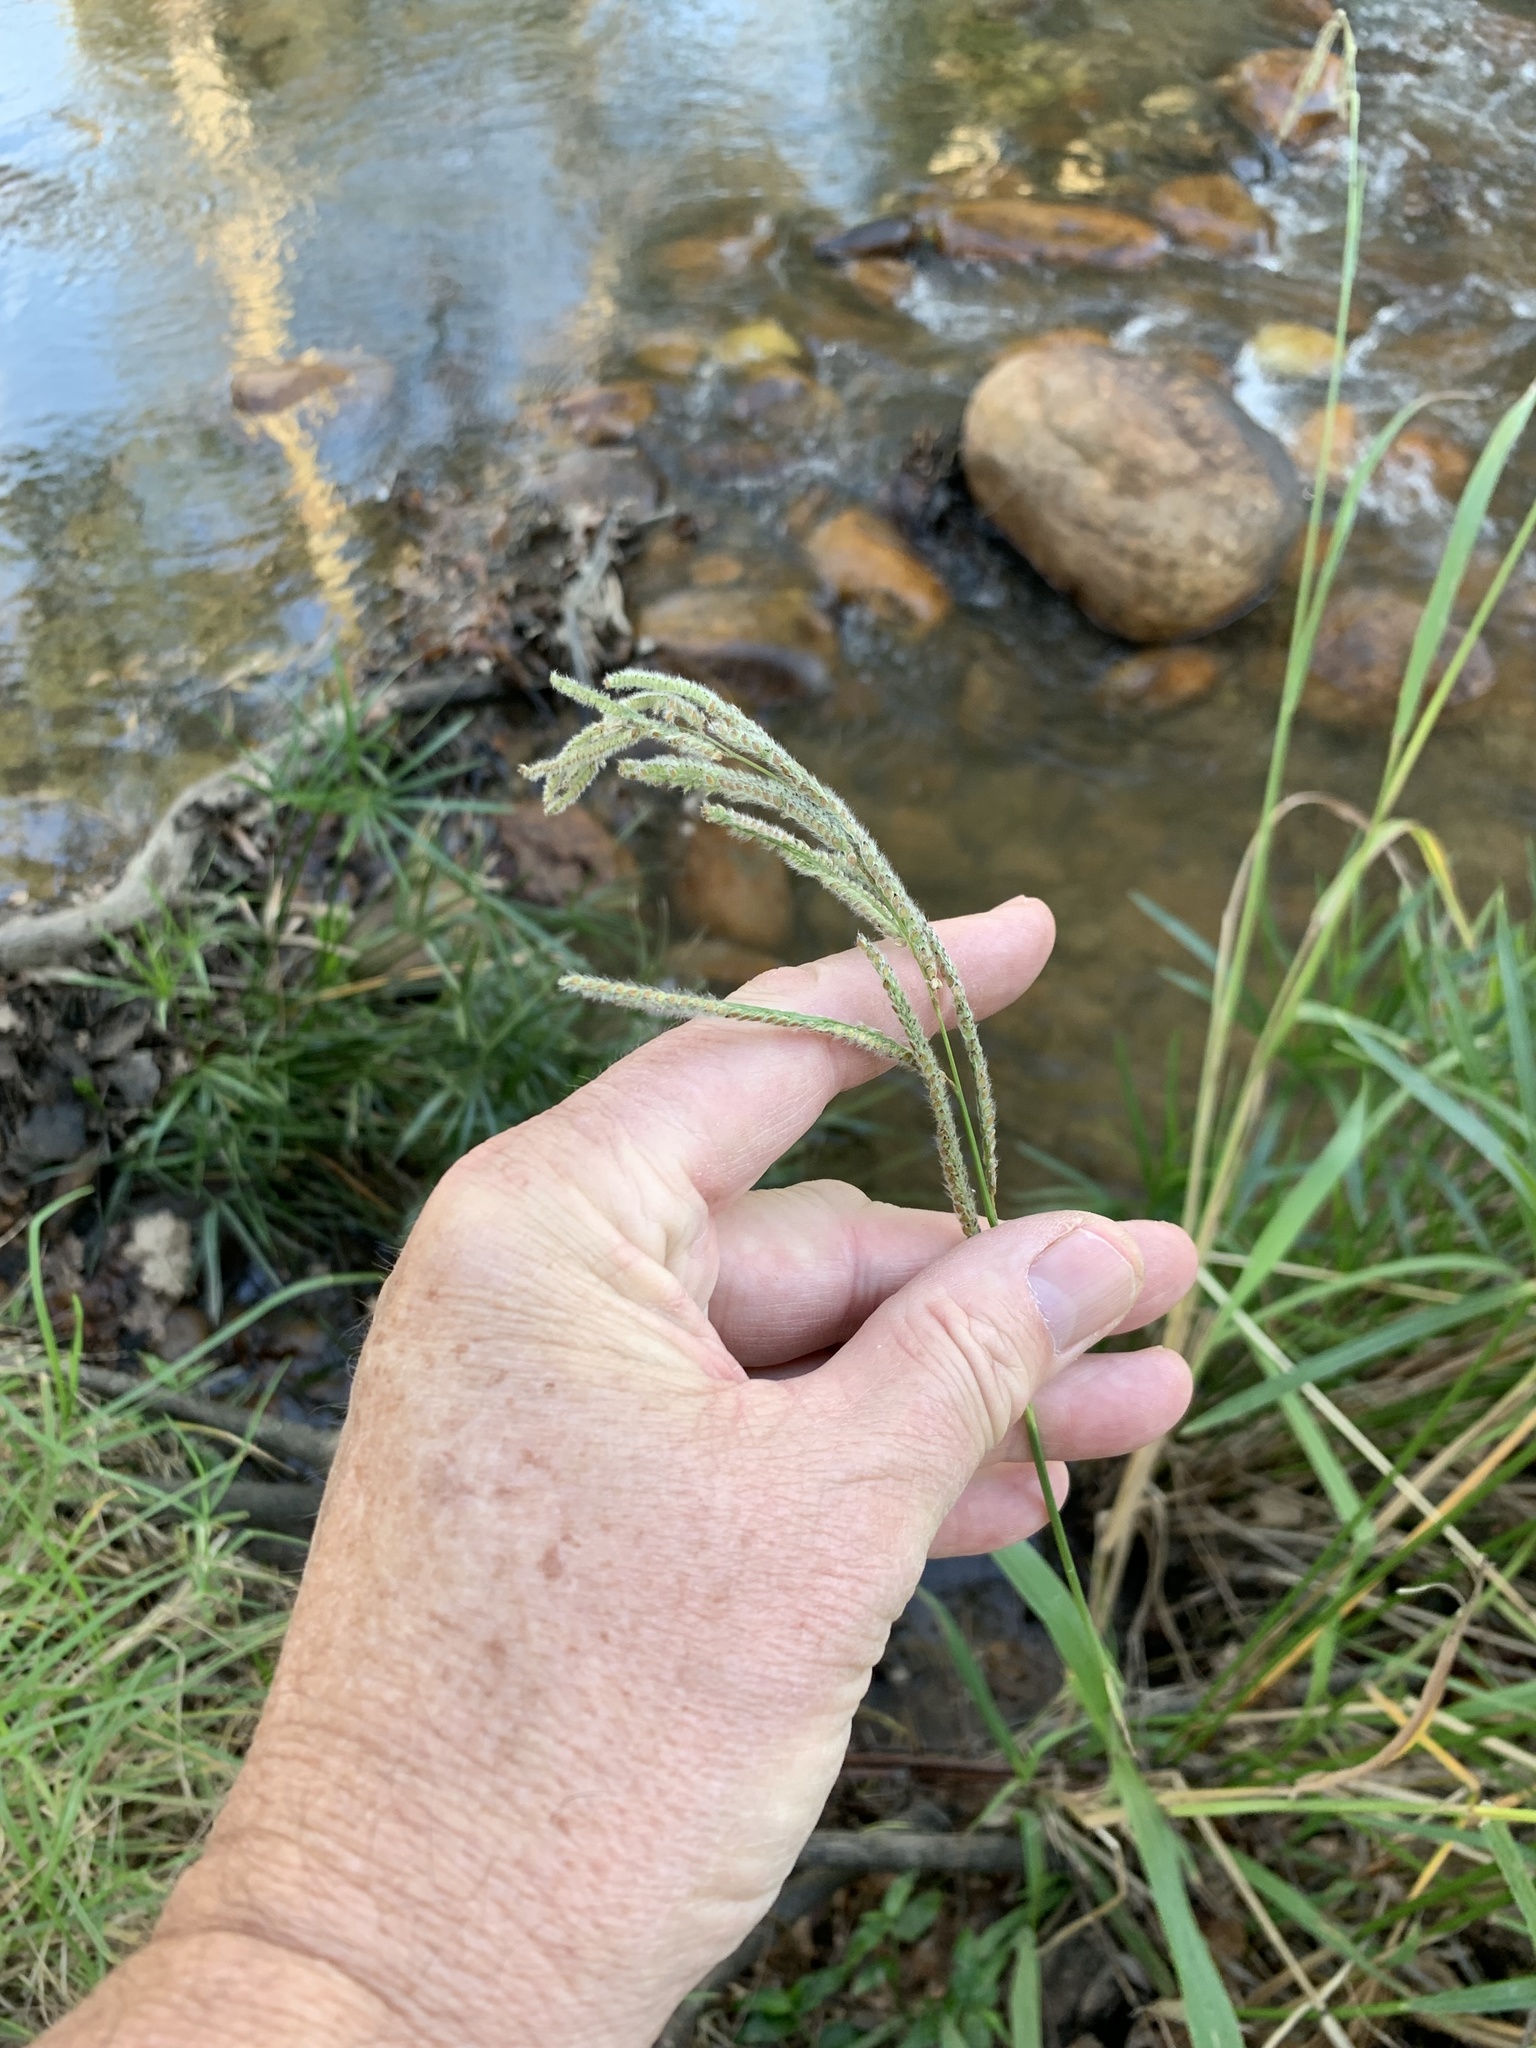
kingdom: Plantae
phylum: Tracheophyta
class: Liliopsida
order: Poales
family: Poaceae
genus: Paspalum
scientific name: Paspalum urvillei
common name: Vasey's grass
